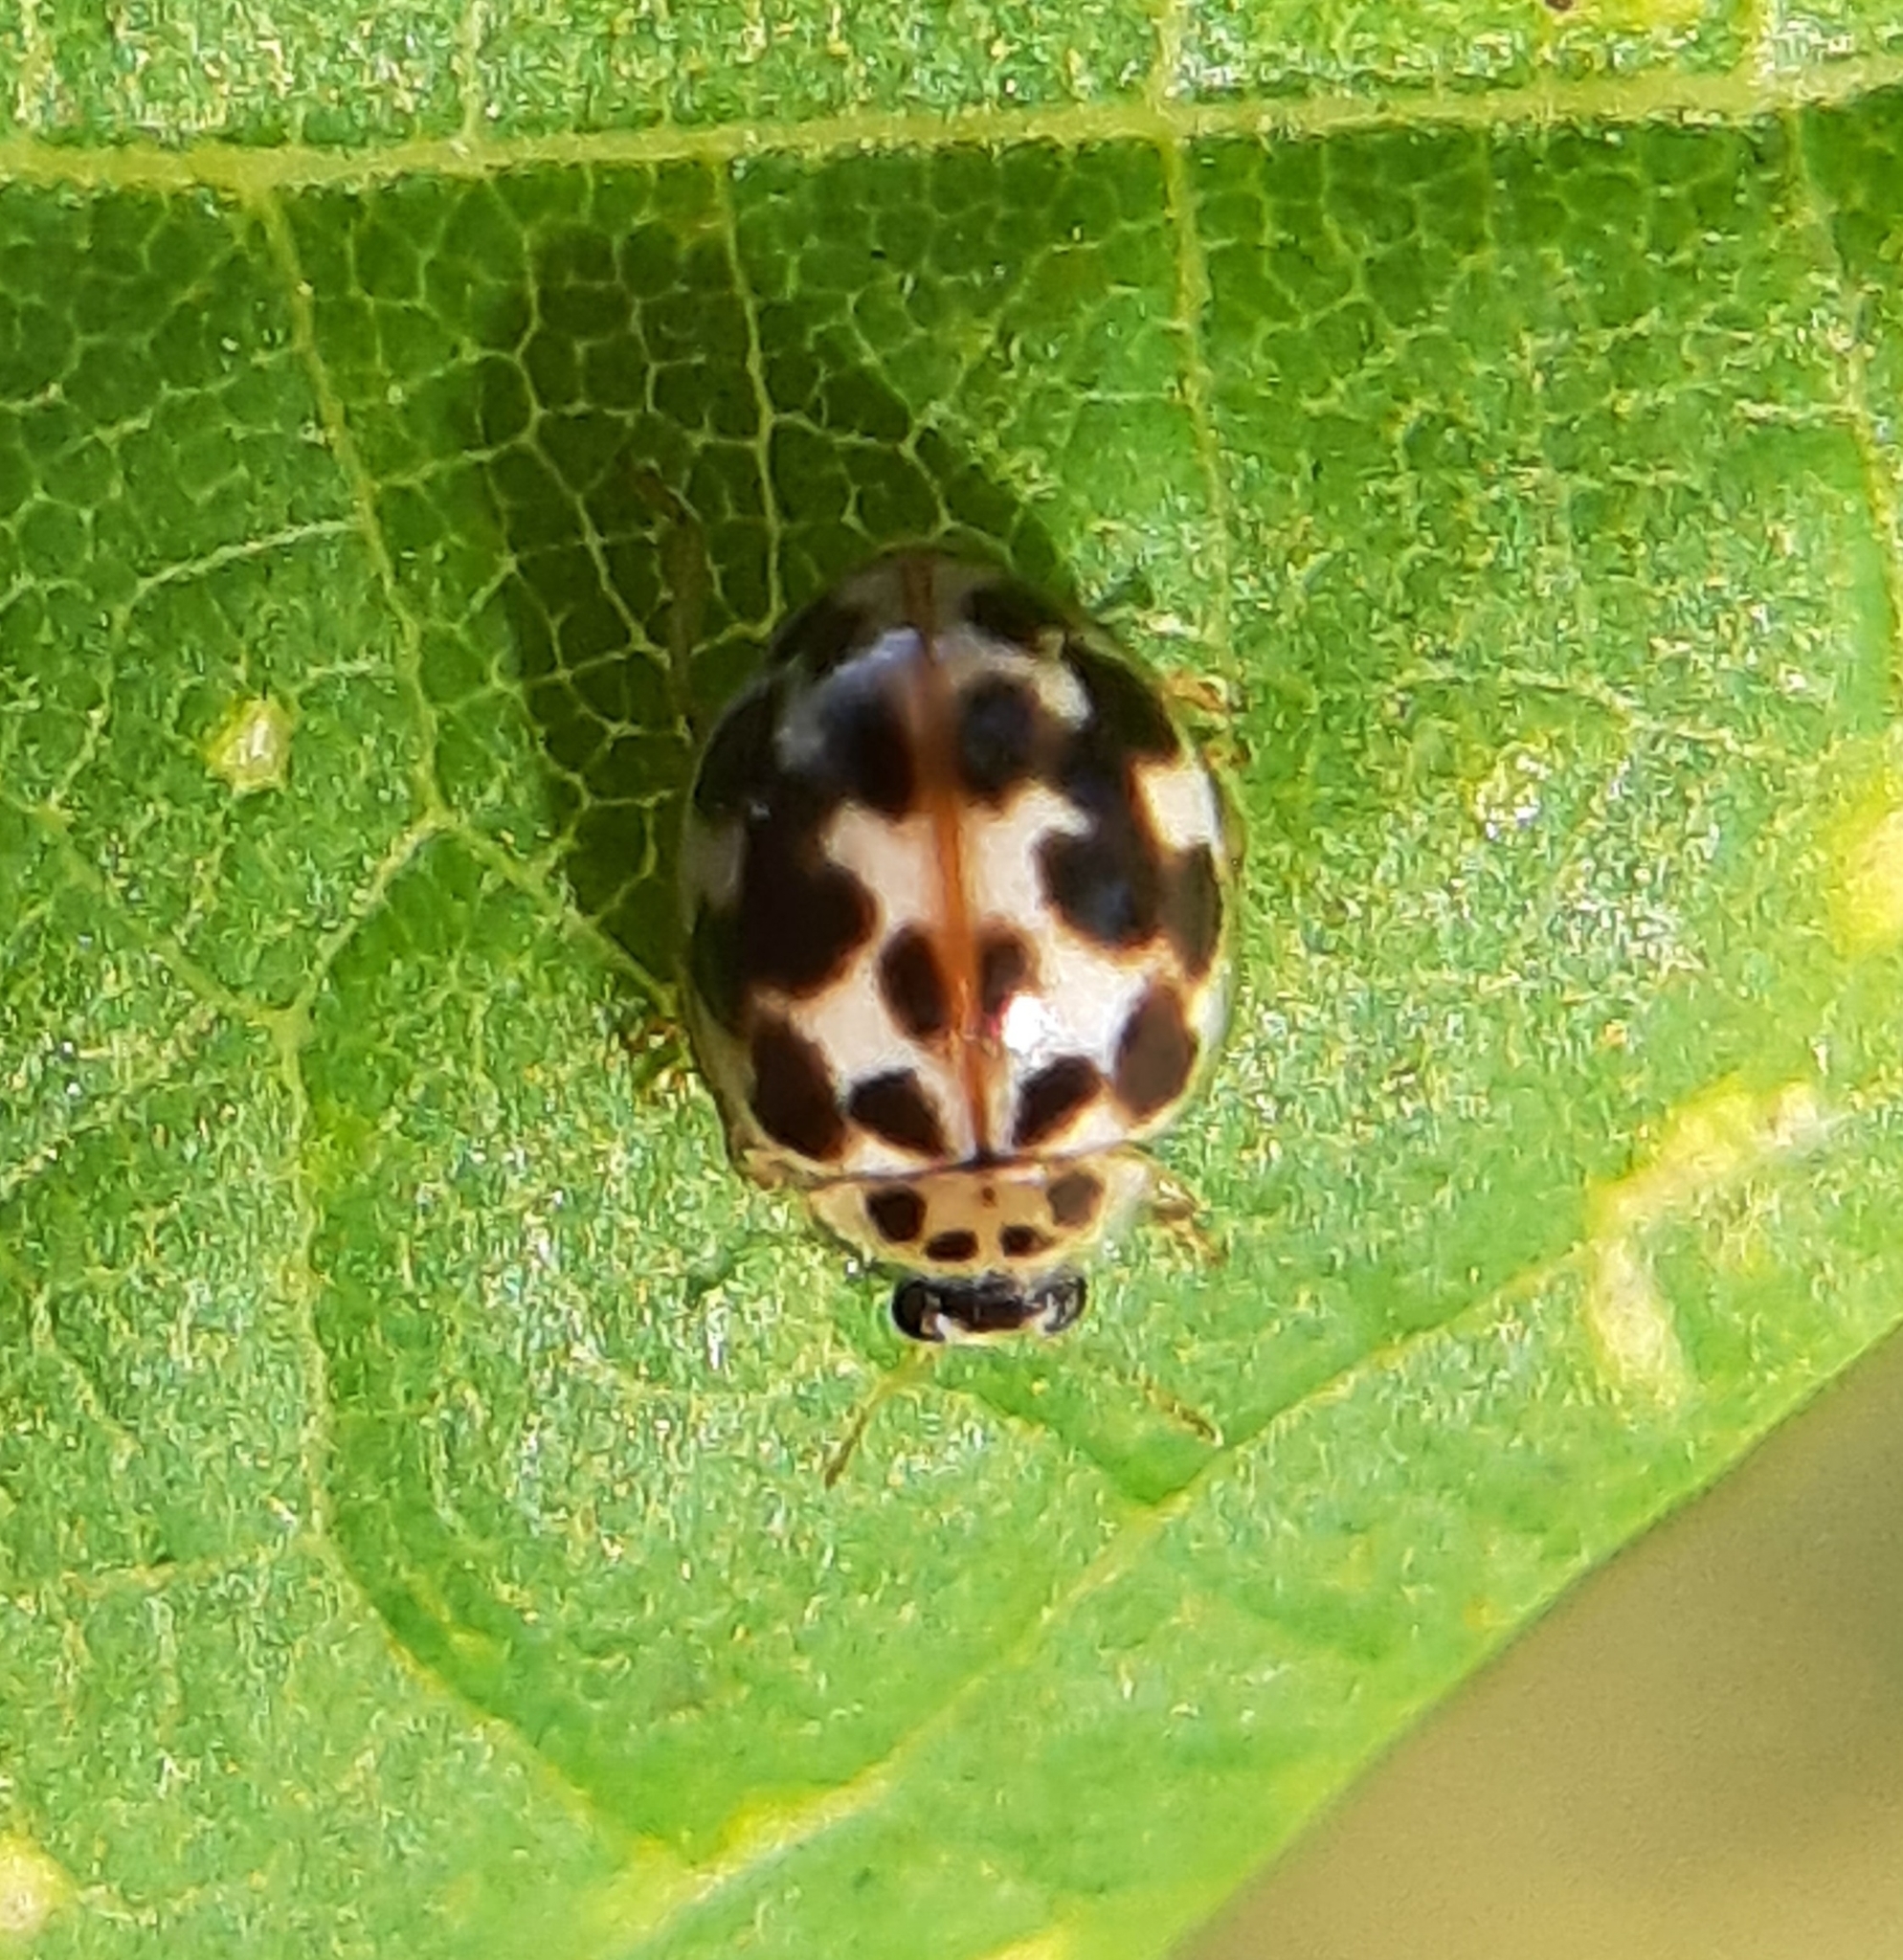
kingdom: Animalia
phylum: Arthropoda
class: Insecta
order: Coleoptera
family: Coccinellidae
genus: Psyllobora
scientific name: Psyllobora vigintimaculata
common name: Ladybird beetle
